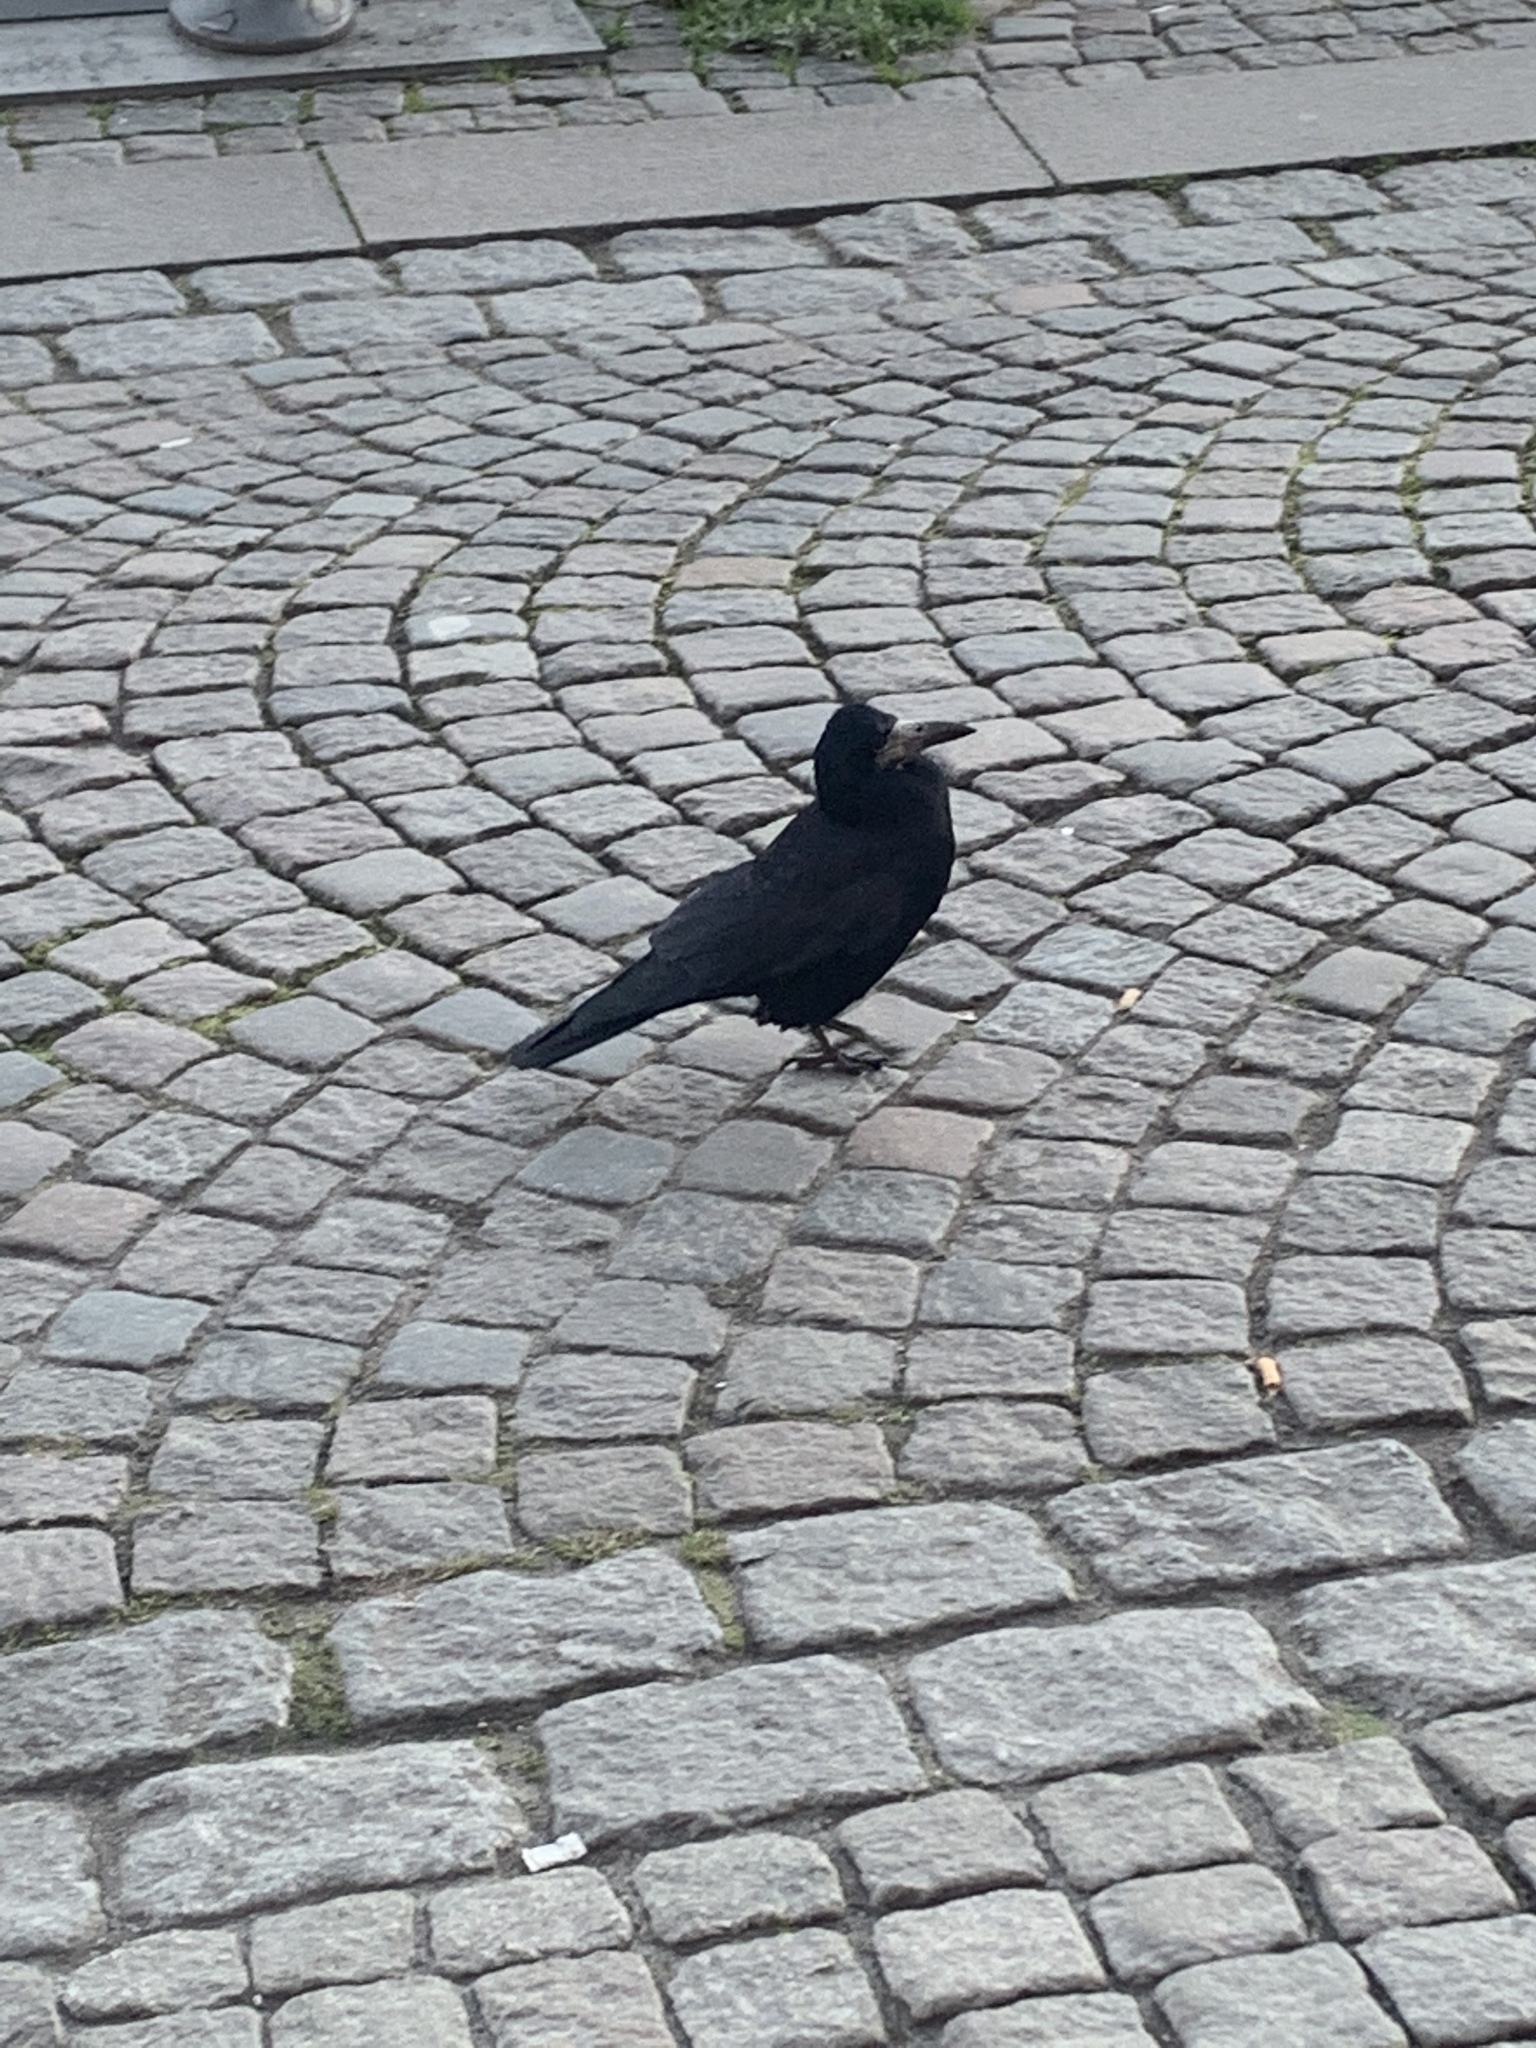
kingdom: Animalia
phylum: Chordata
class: Aves
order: Passeriformes
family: Corvidae
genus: Corvus
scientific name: Corvus frugilegus
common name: Rook
